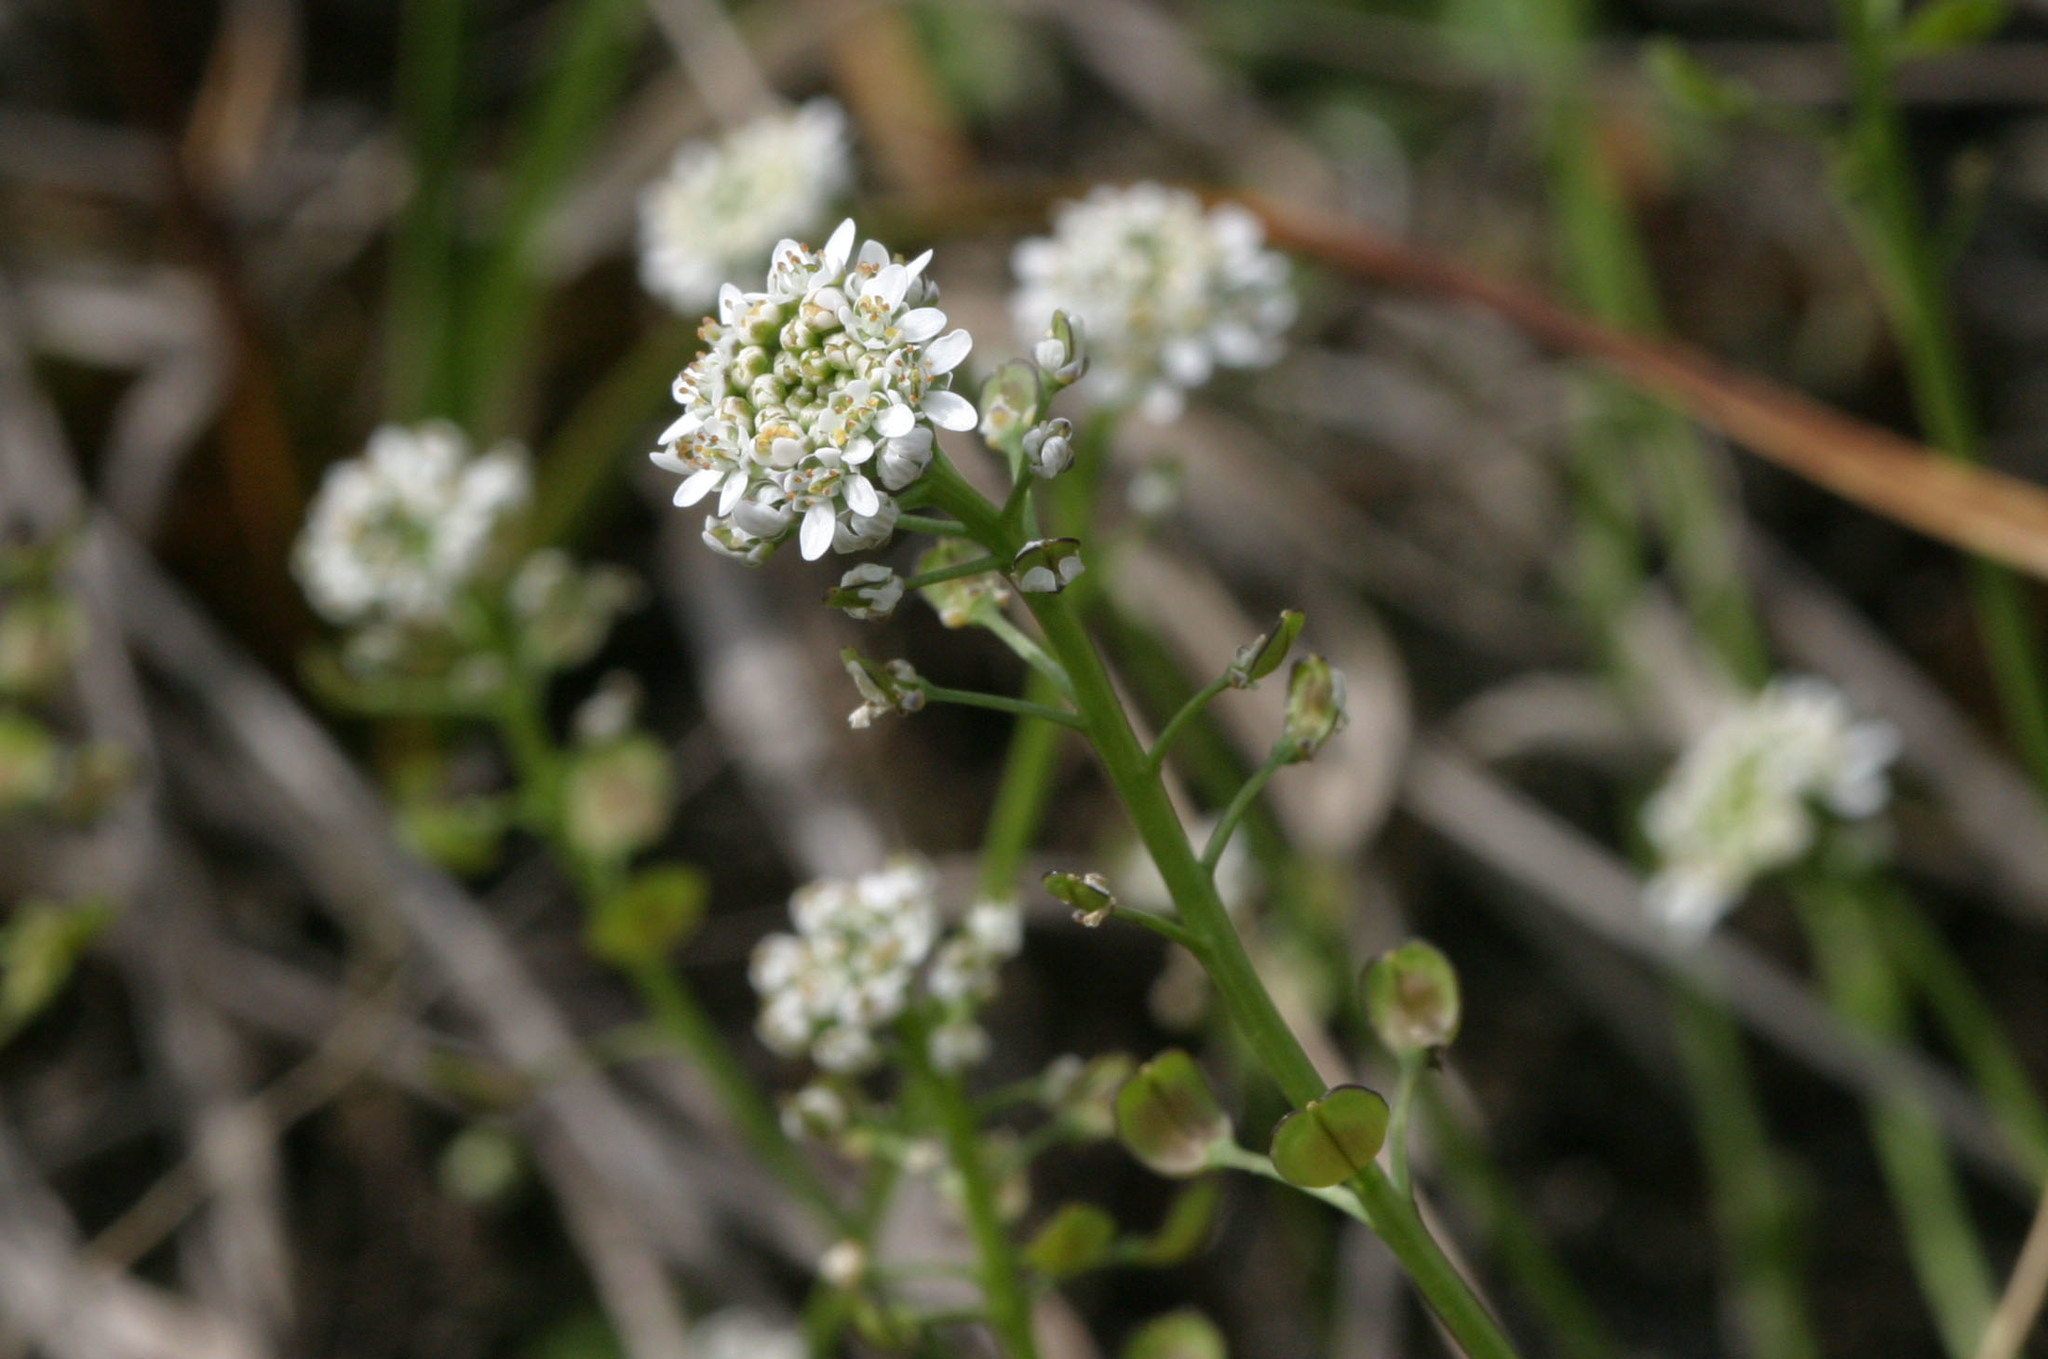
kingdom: Plantae
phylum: Tracheophyta
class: Magnoliopsida
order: Brassicales
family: Brassicaceae
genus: Teesdalia
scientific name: Teesdalia nudicaulis
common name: Shepherd's cress
